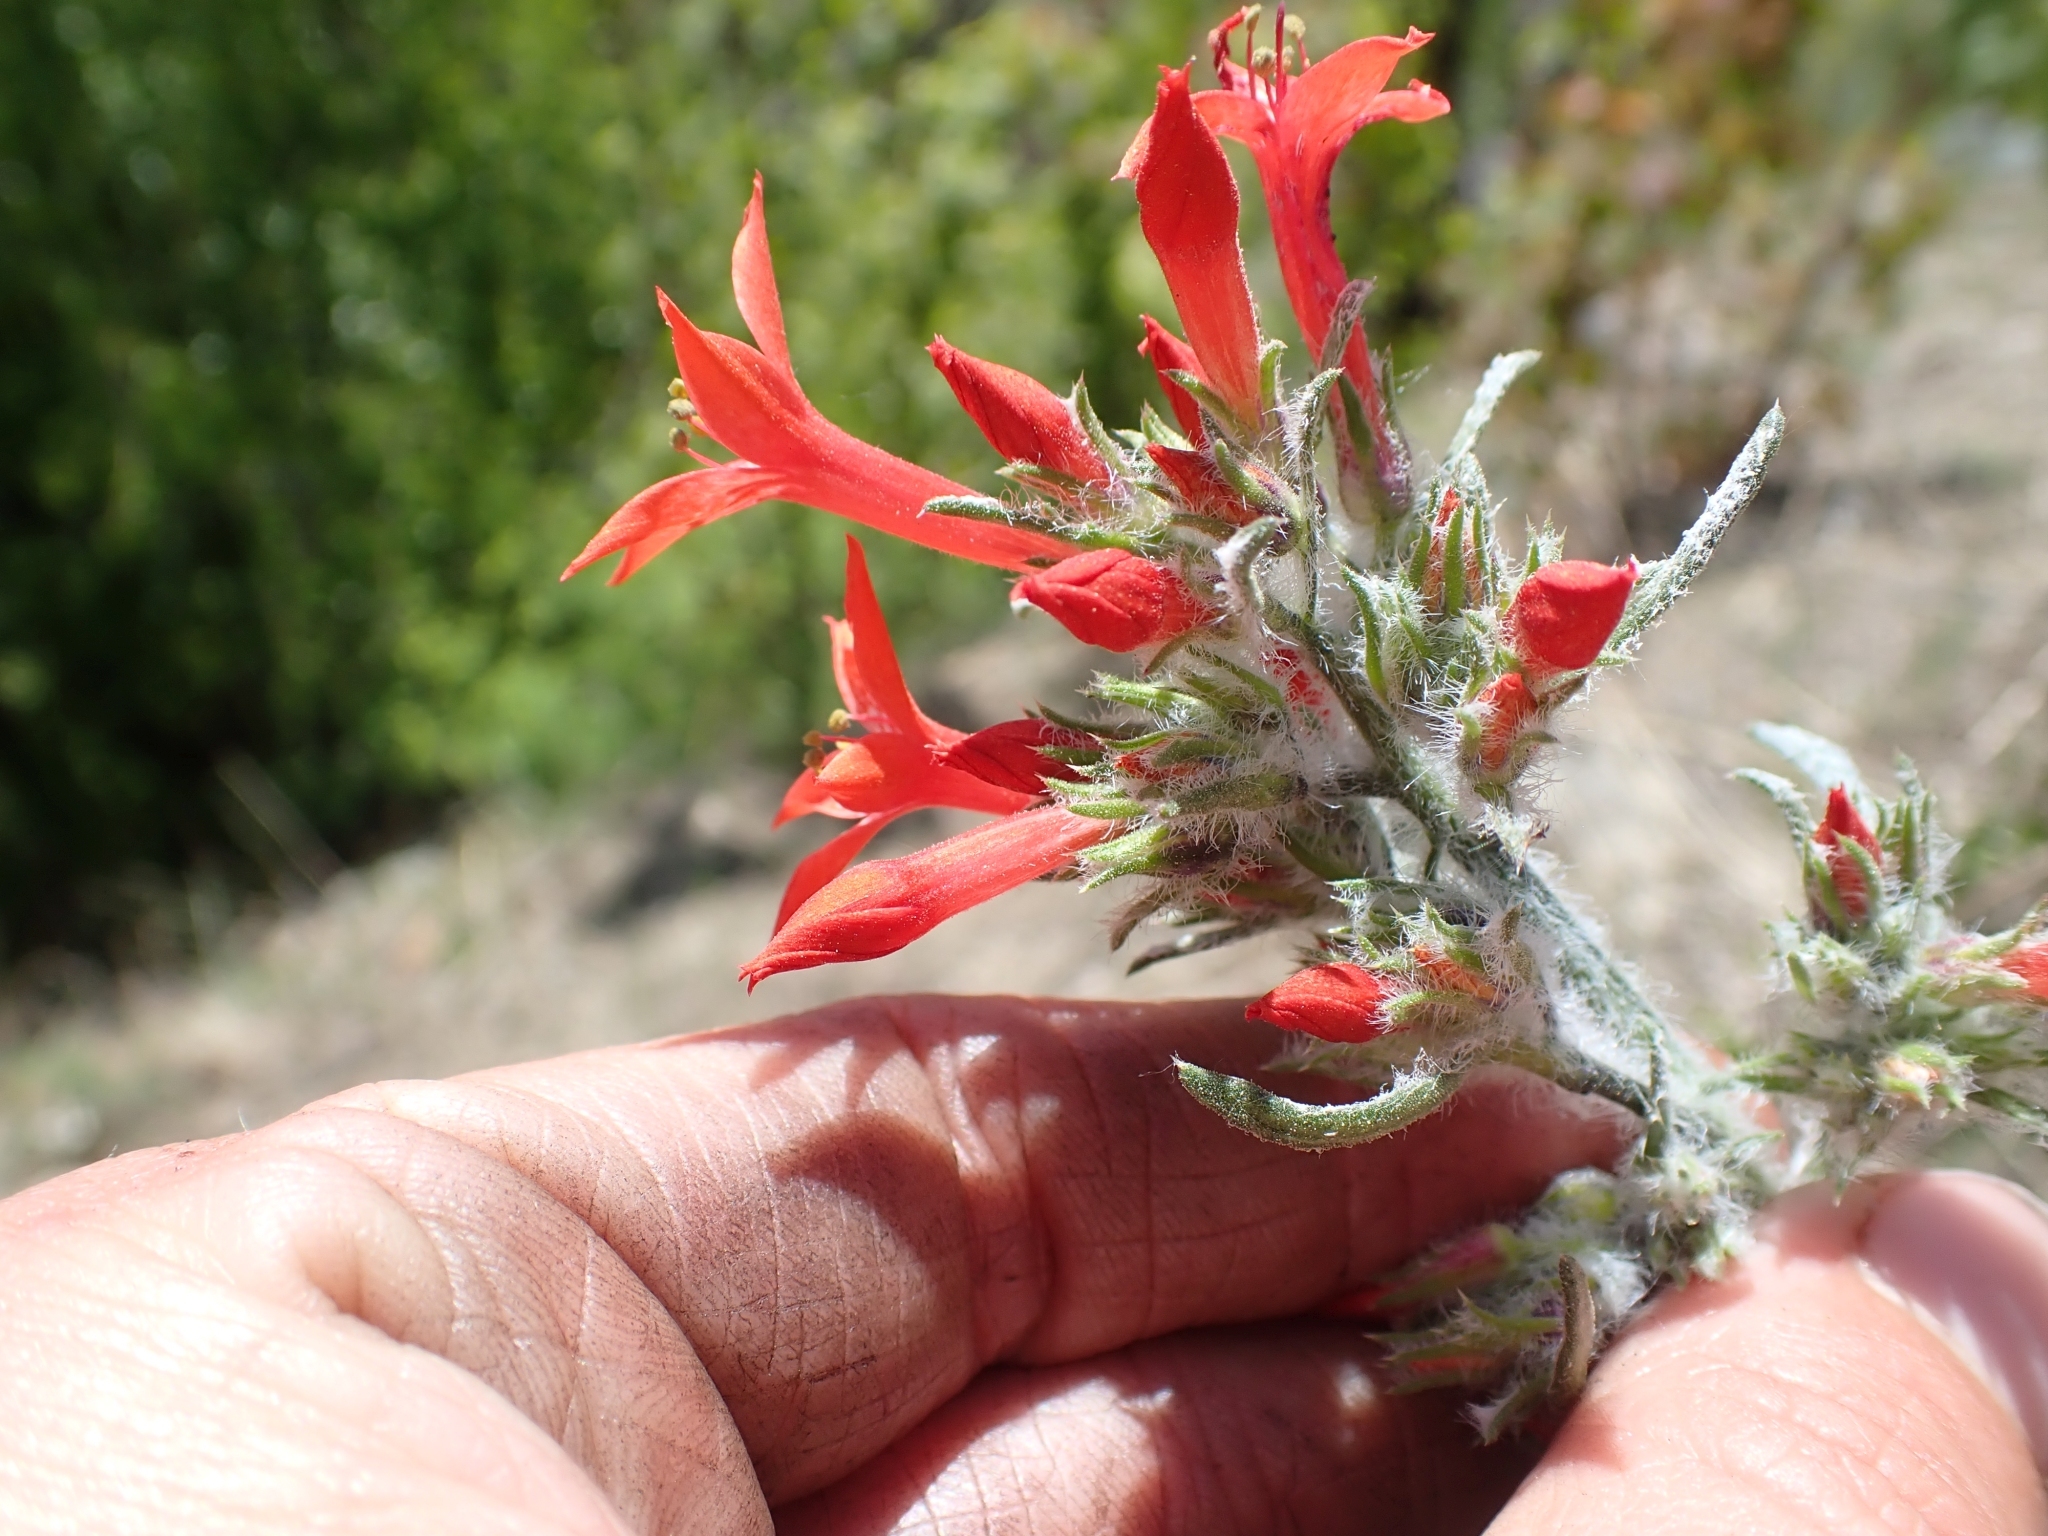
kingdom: Plantae
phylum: Tracheophyta
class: Magnoliopsida
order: Ericales
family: Polemoniaceae
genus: Ipomopsis
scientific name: Ipomopsis aggregata
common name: Scarlet gilia
